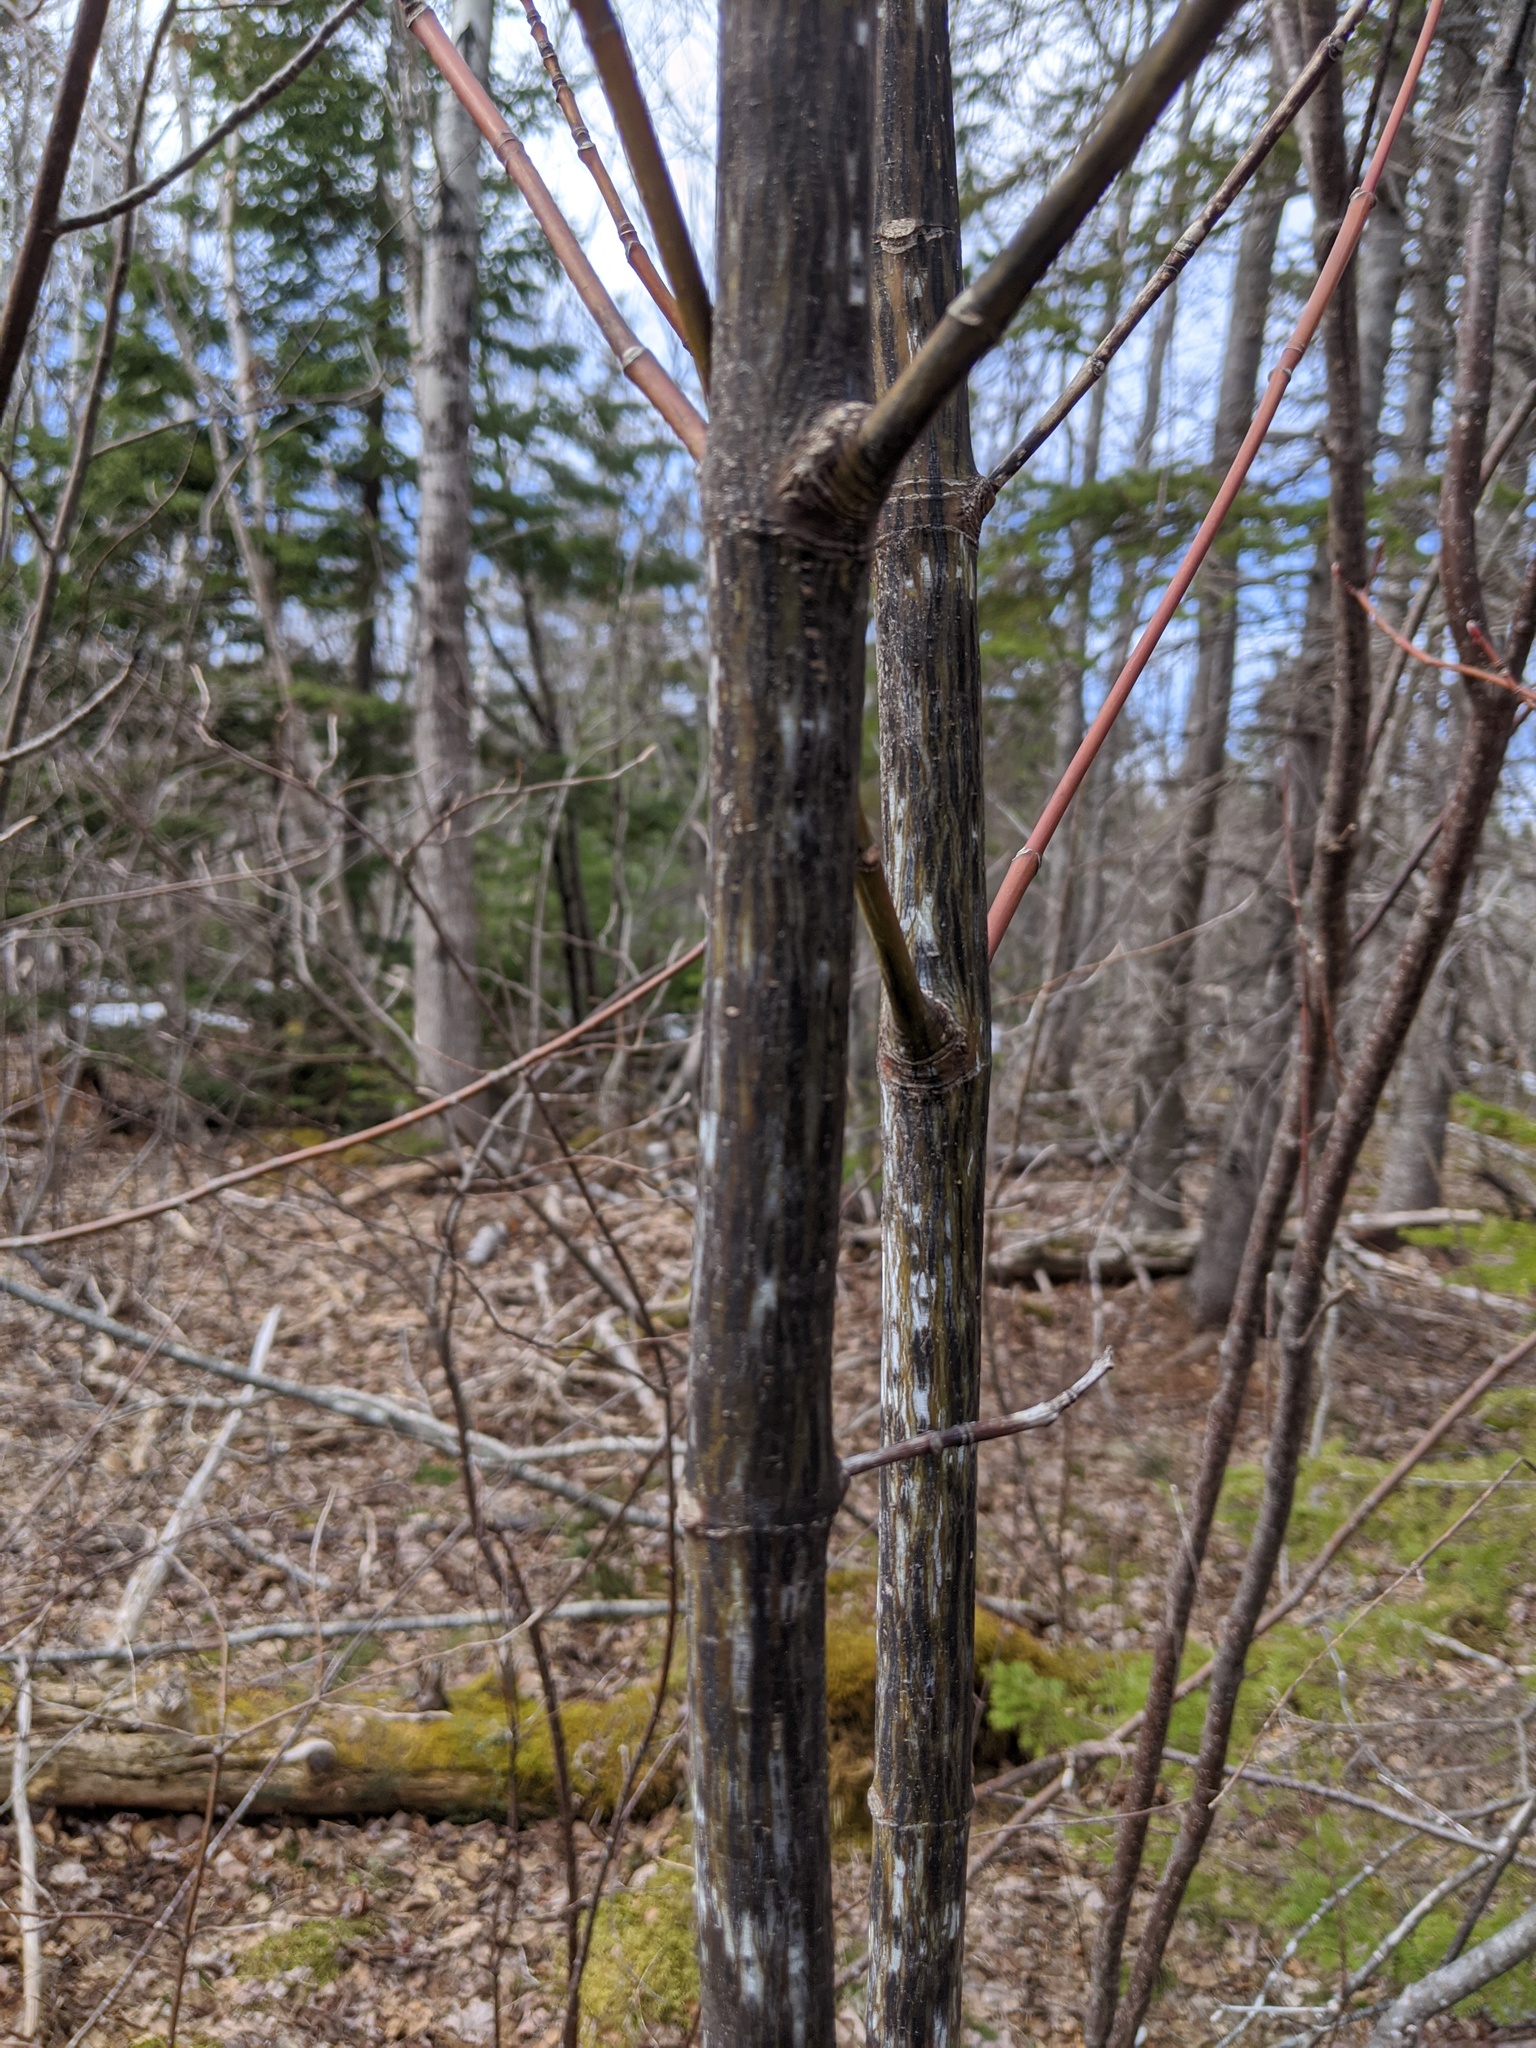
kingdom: Plantae
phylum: Tracheophyta
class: Magnoliopsida
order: Sapindales
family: Sapindaceae
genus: Acer
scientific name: Acer pensylvanicum
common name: Moosewood
